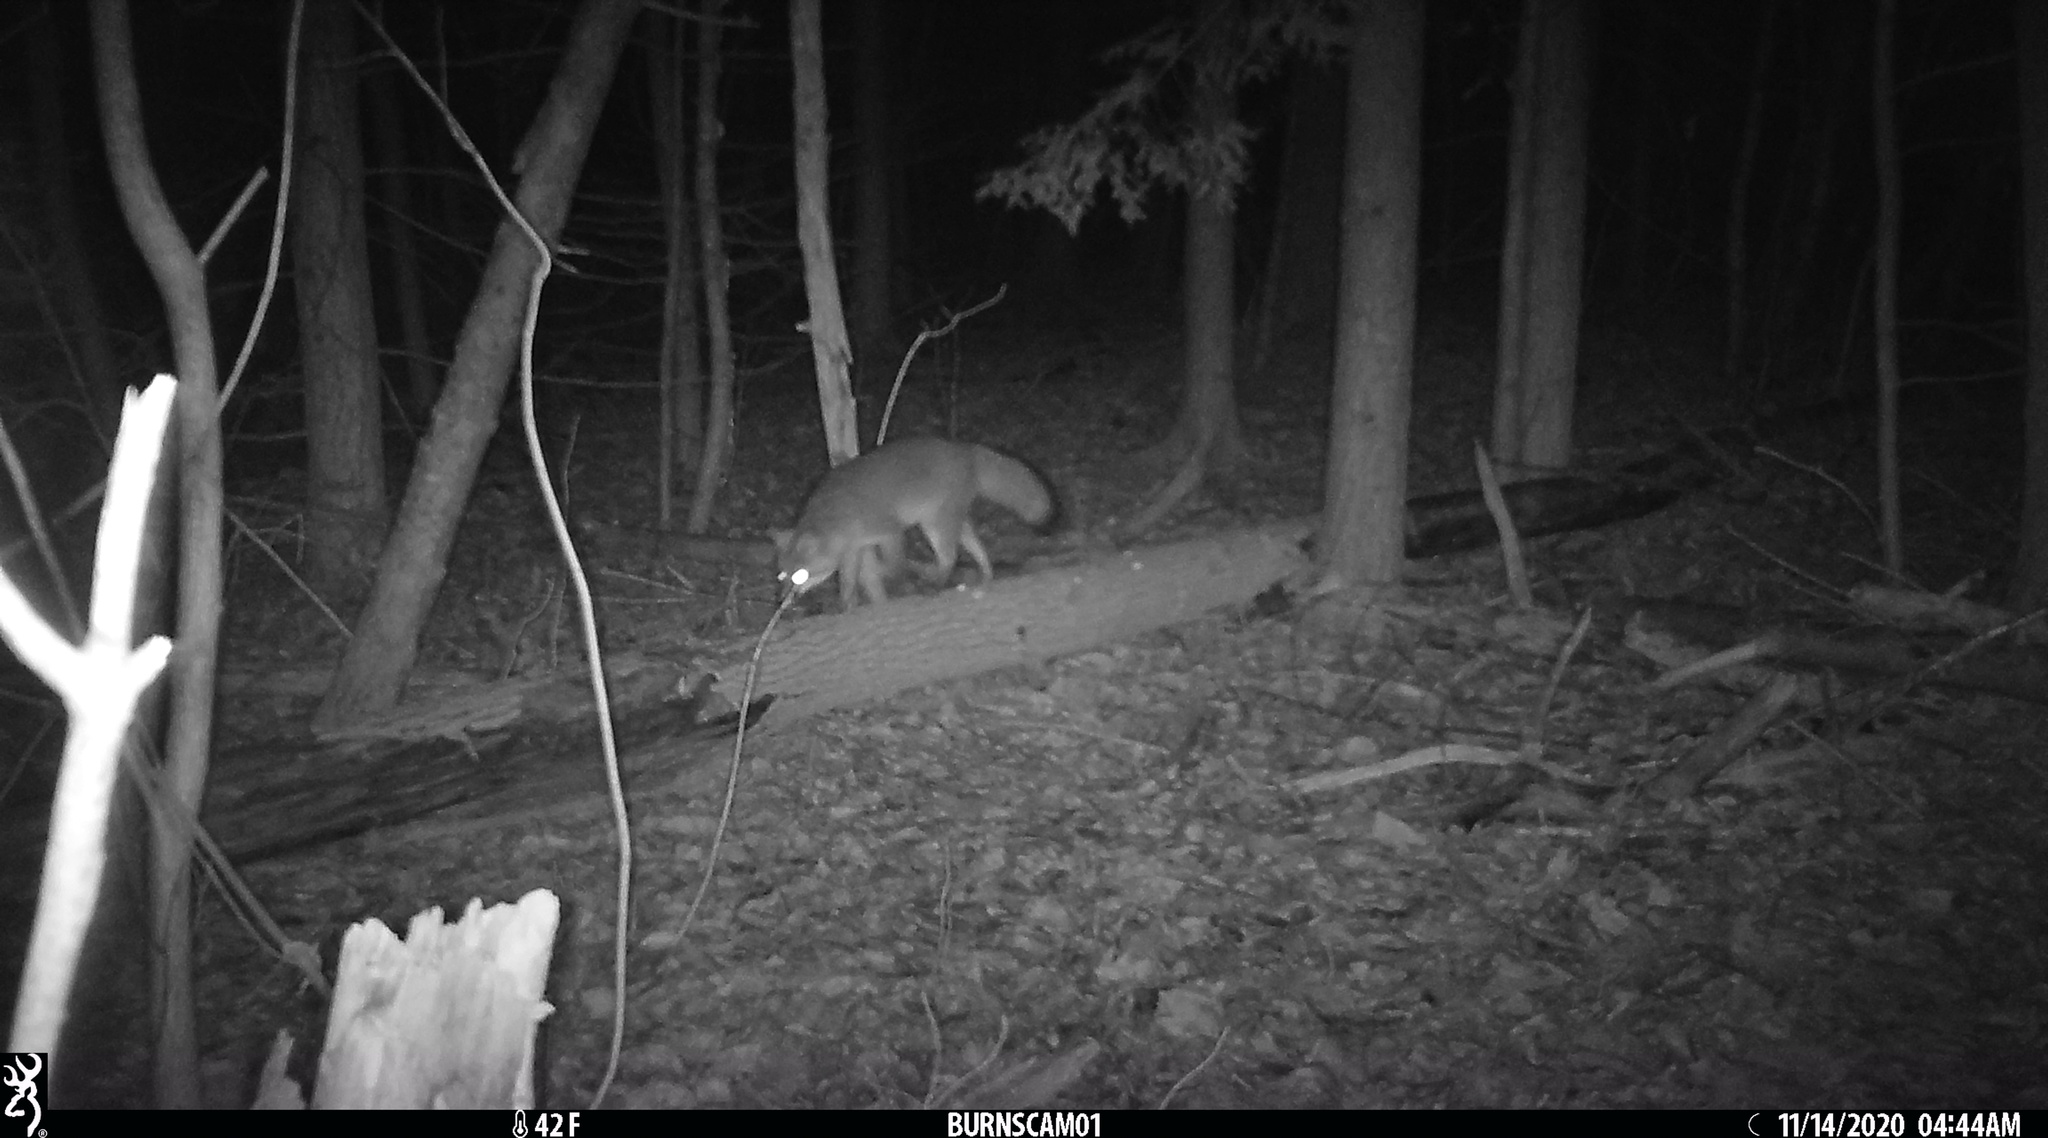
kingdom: Animalia
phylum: Chordata
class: Mammalia
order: Carnivora
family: Canidae
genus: Urocyon
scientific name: Urocyon cinereoargenteus
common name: Gray fox
